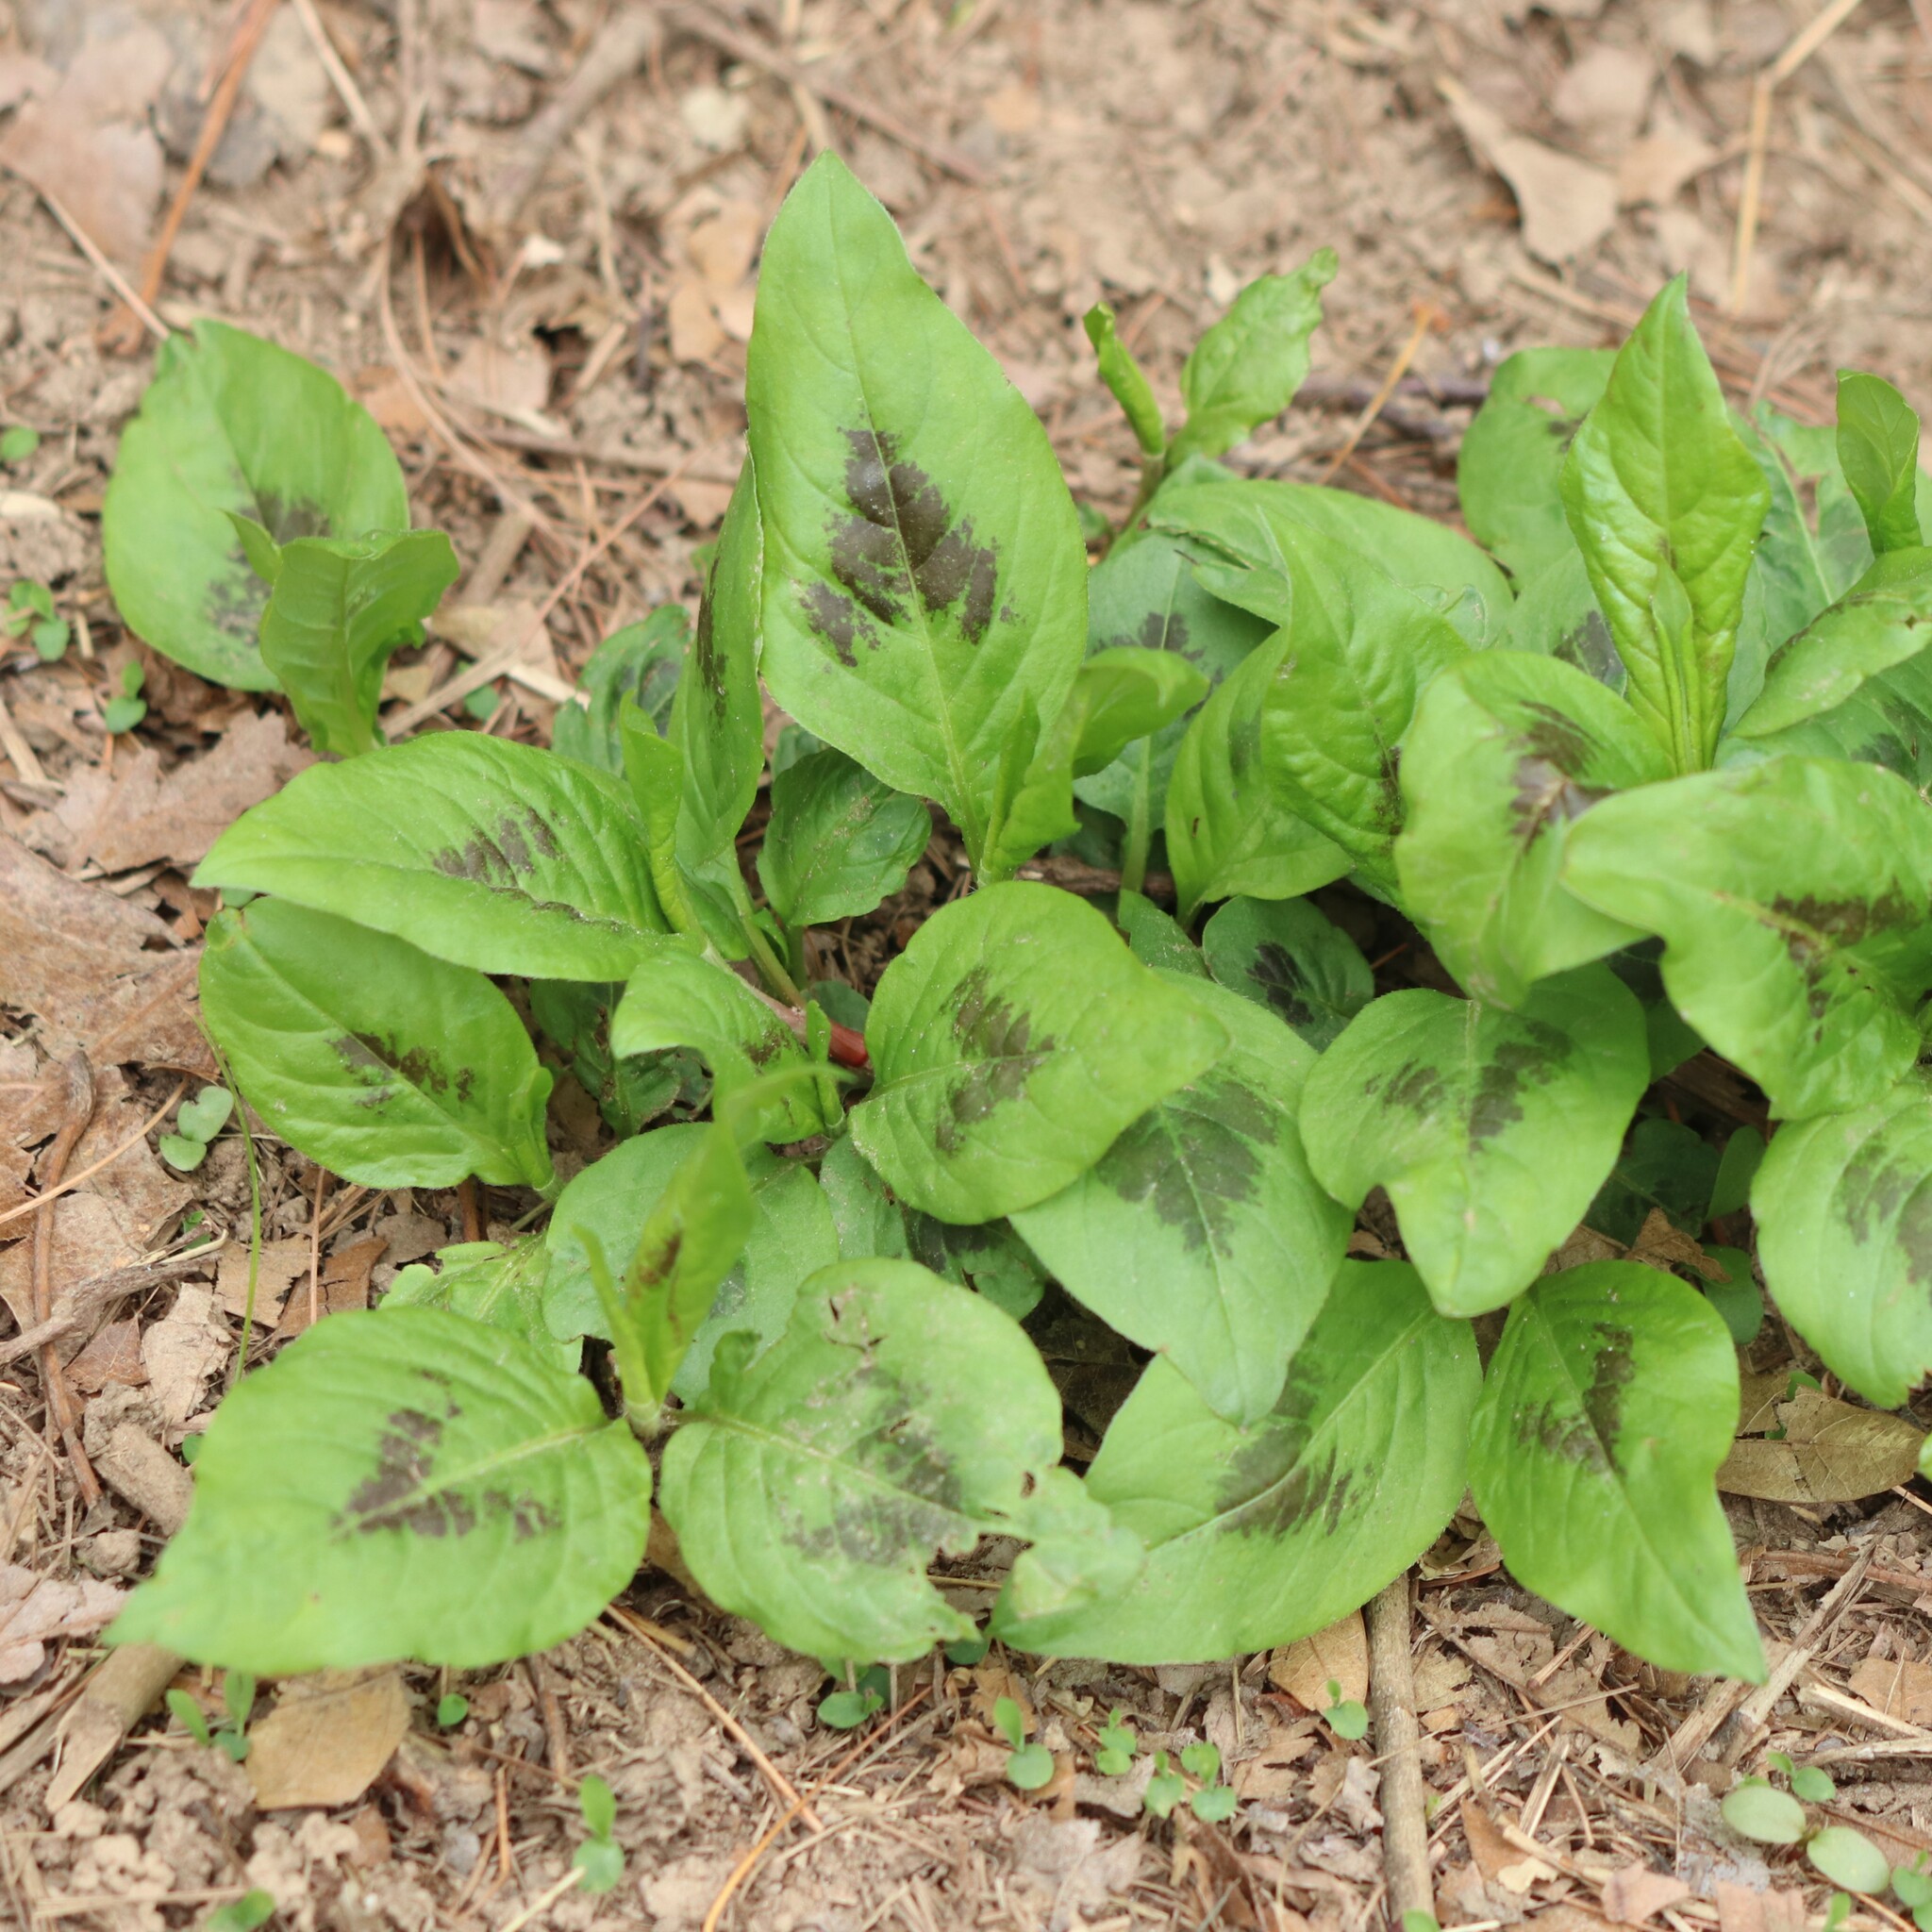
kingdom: Plantae
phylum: Tracheophyta
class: Magnoliopsida
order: Caryophyllales
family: Polygonaceae
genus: Persicaria
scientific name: Persicaria virginiana
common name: Jumpseed
